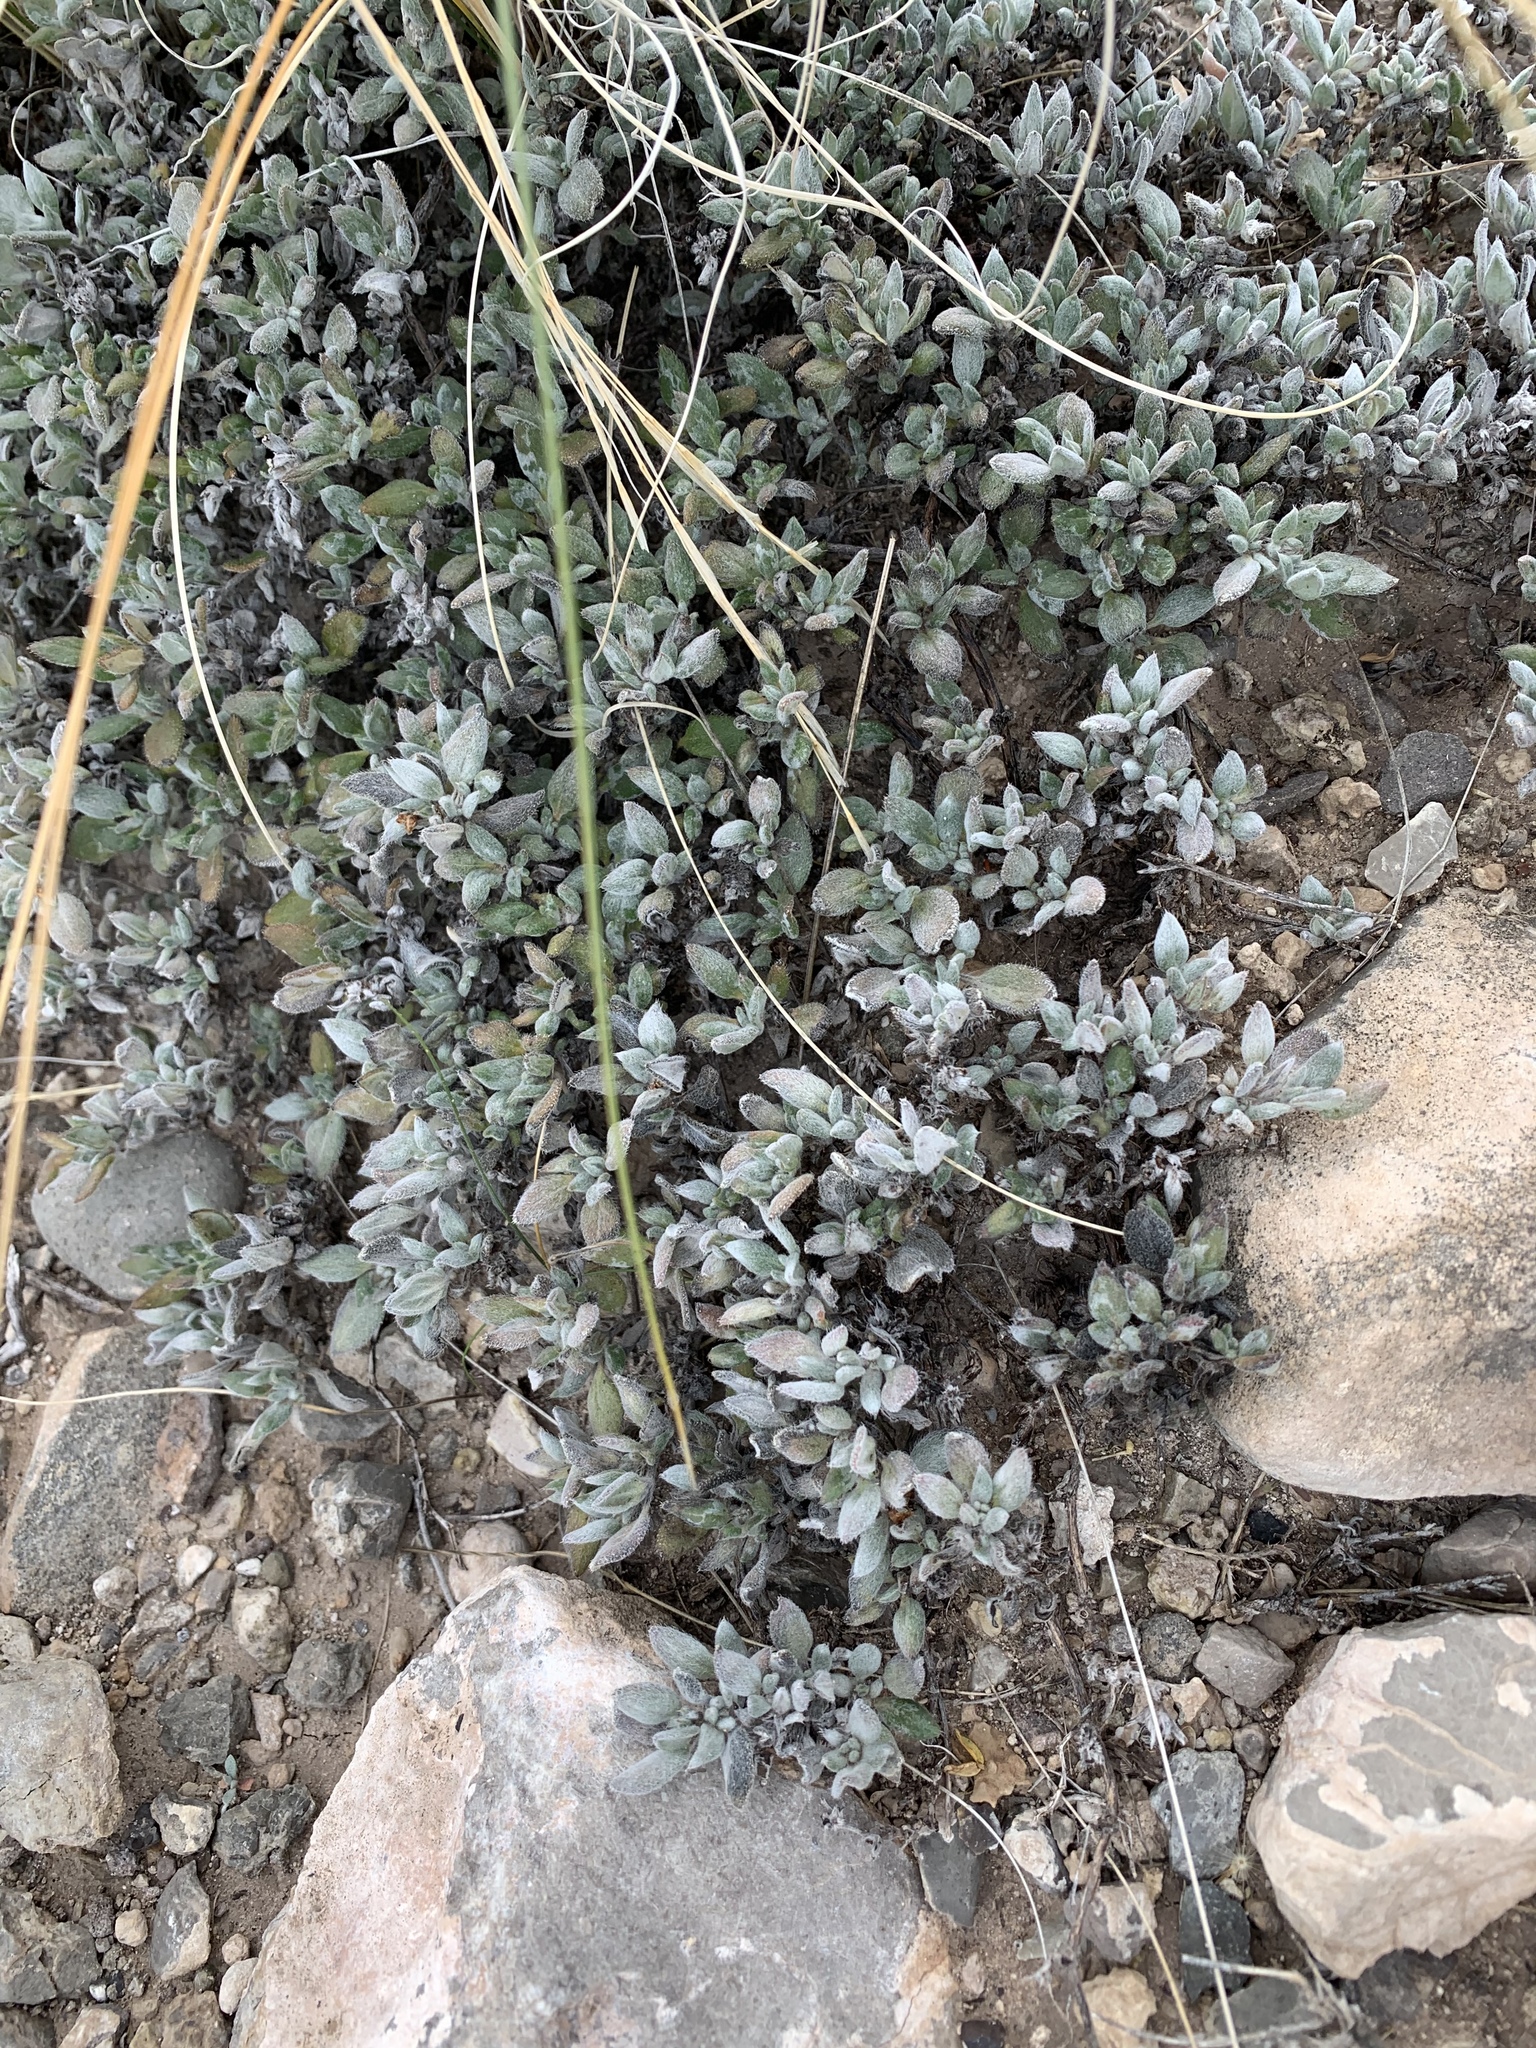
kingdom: Plantae
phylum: Tracheophyta
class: Magnoliopsida
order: Boraginales
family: Ehretiaceae
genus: Tiquilia
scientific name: Tiquilia canescens
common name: Hairy tiquilia
